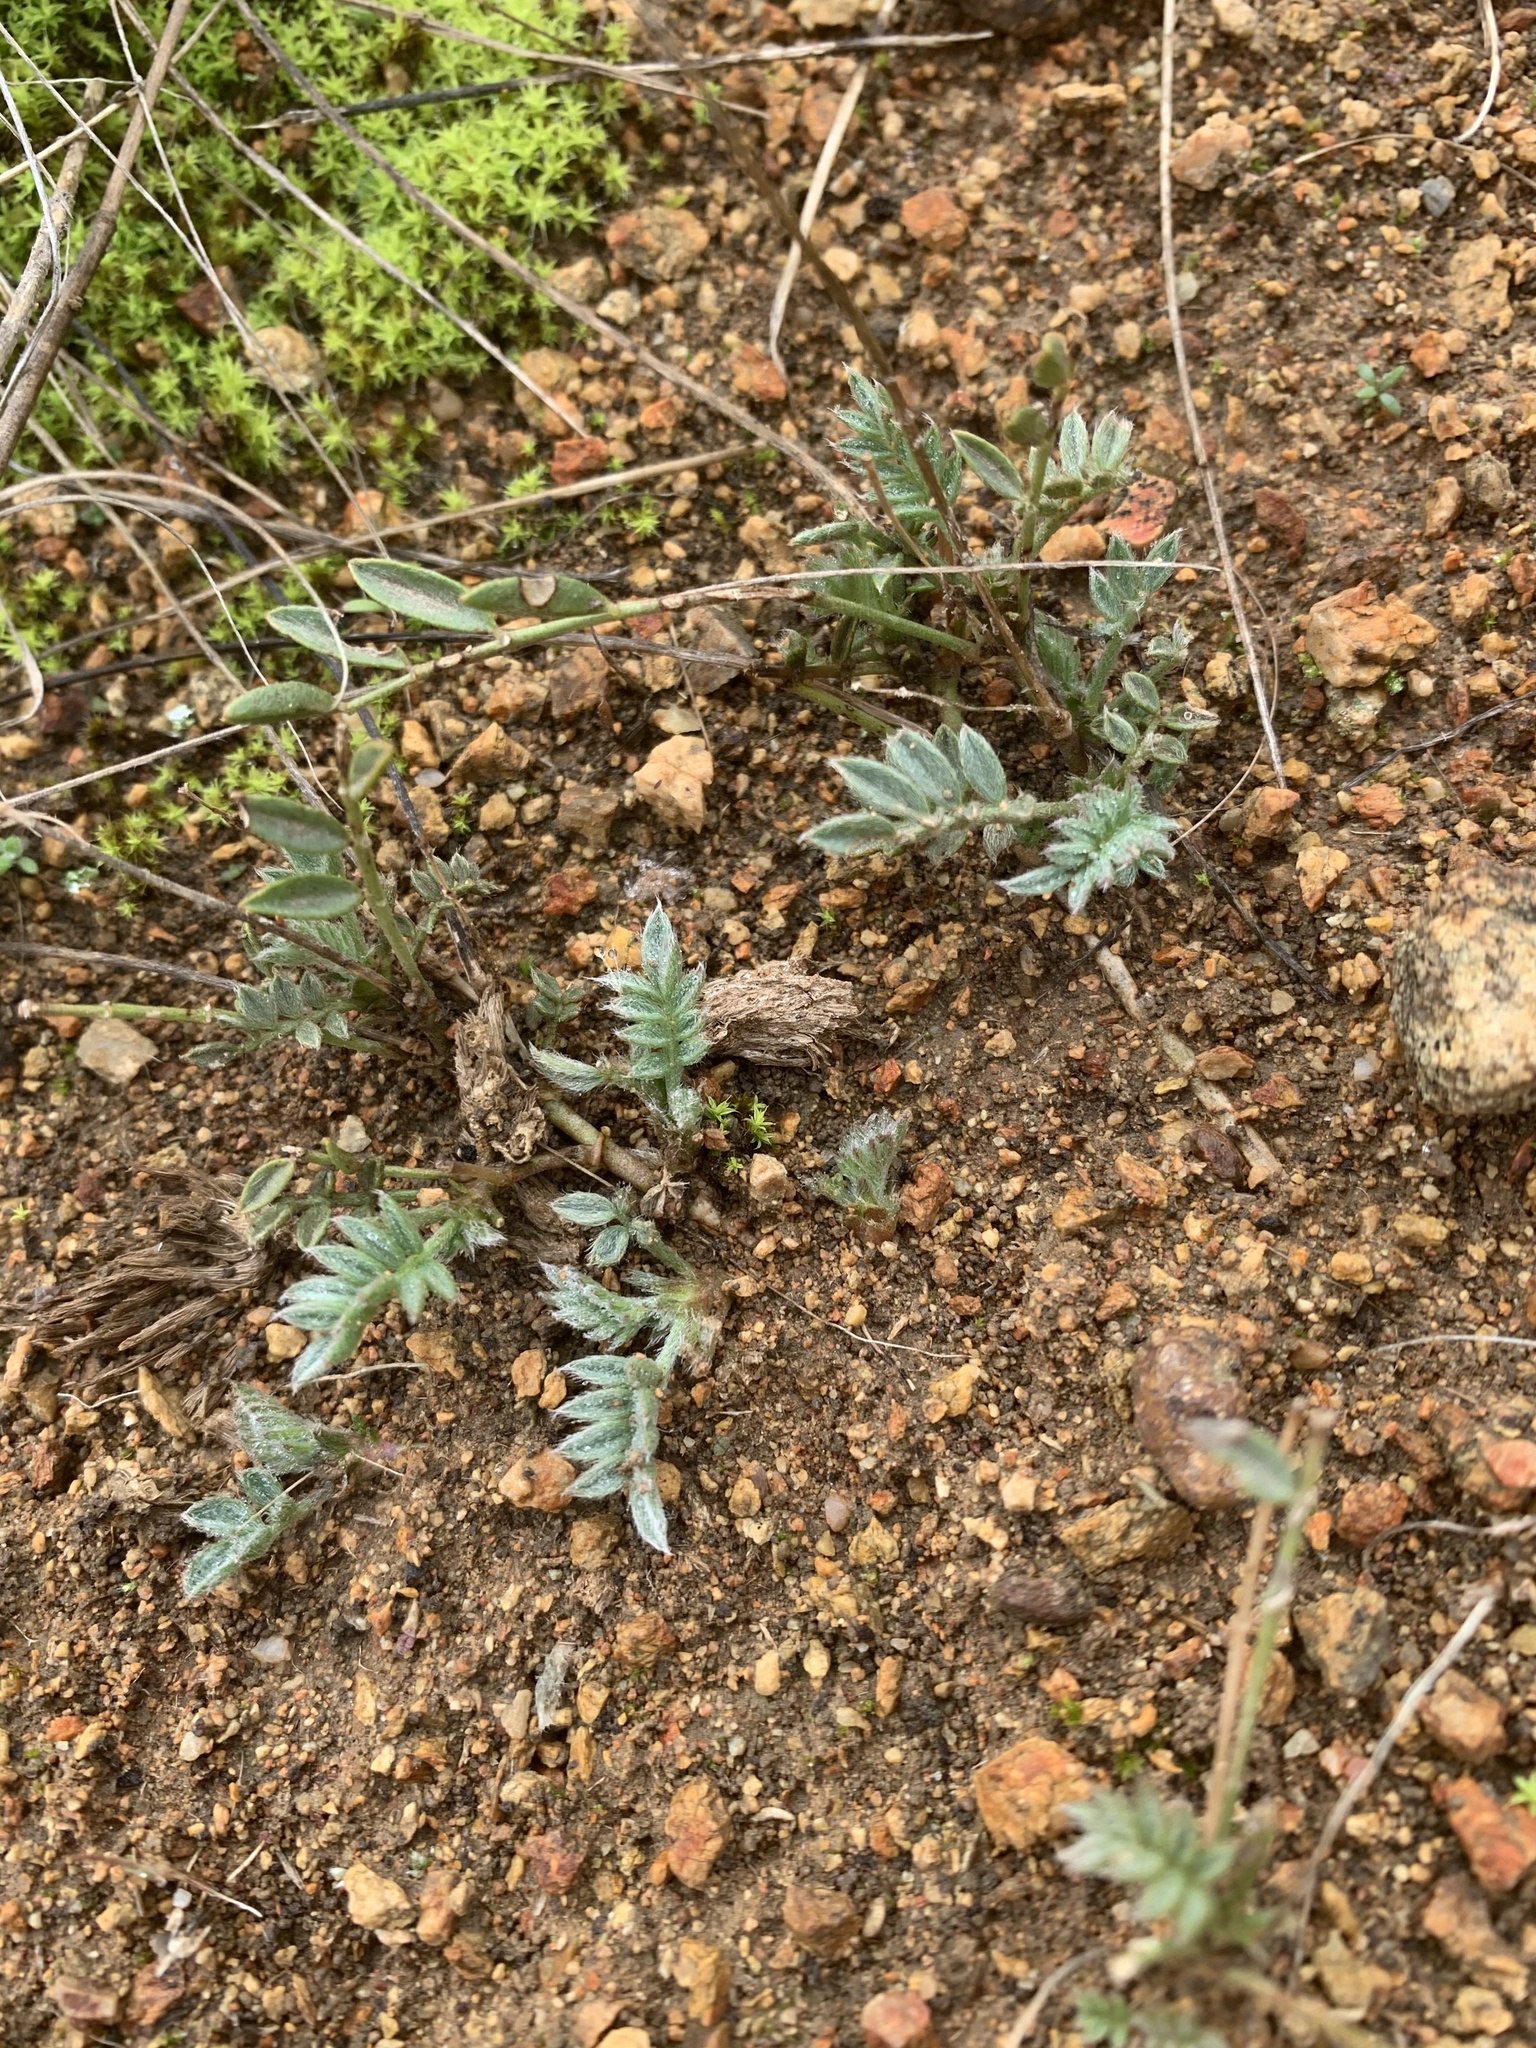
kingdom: Plantae
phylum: Tracheophyta
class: Magnoliopsida
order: Fabales
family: Fabaceae
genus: Swainsona
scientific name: Swainsona sericea
